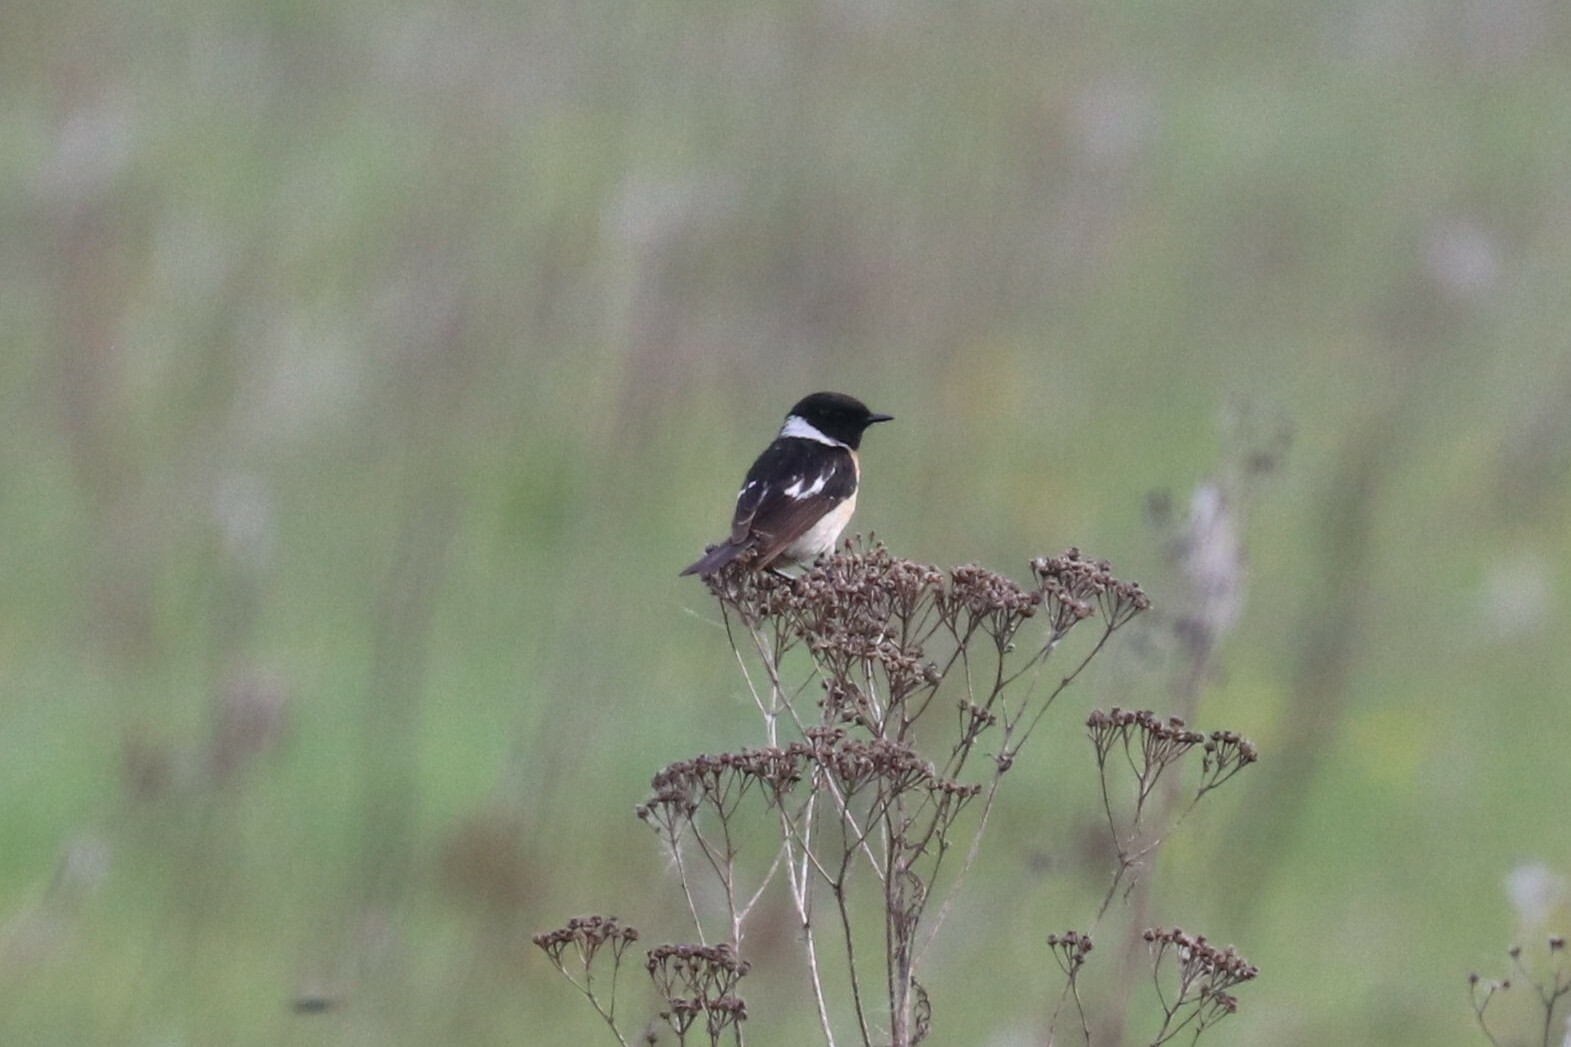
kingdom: Animalia
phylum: Chordata
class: Aves
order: Passeriformes
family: Muscicapidae
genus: Saxicola
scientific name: Saxicola maurus
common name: Siberian stonechat
